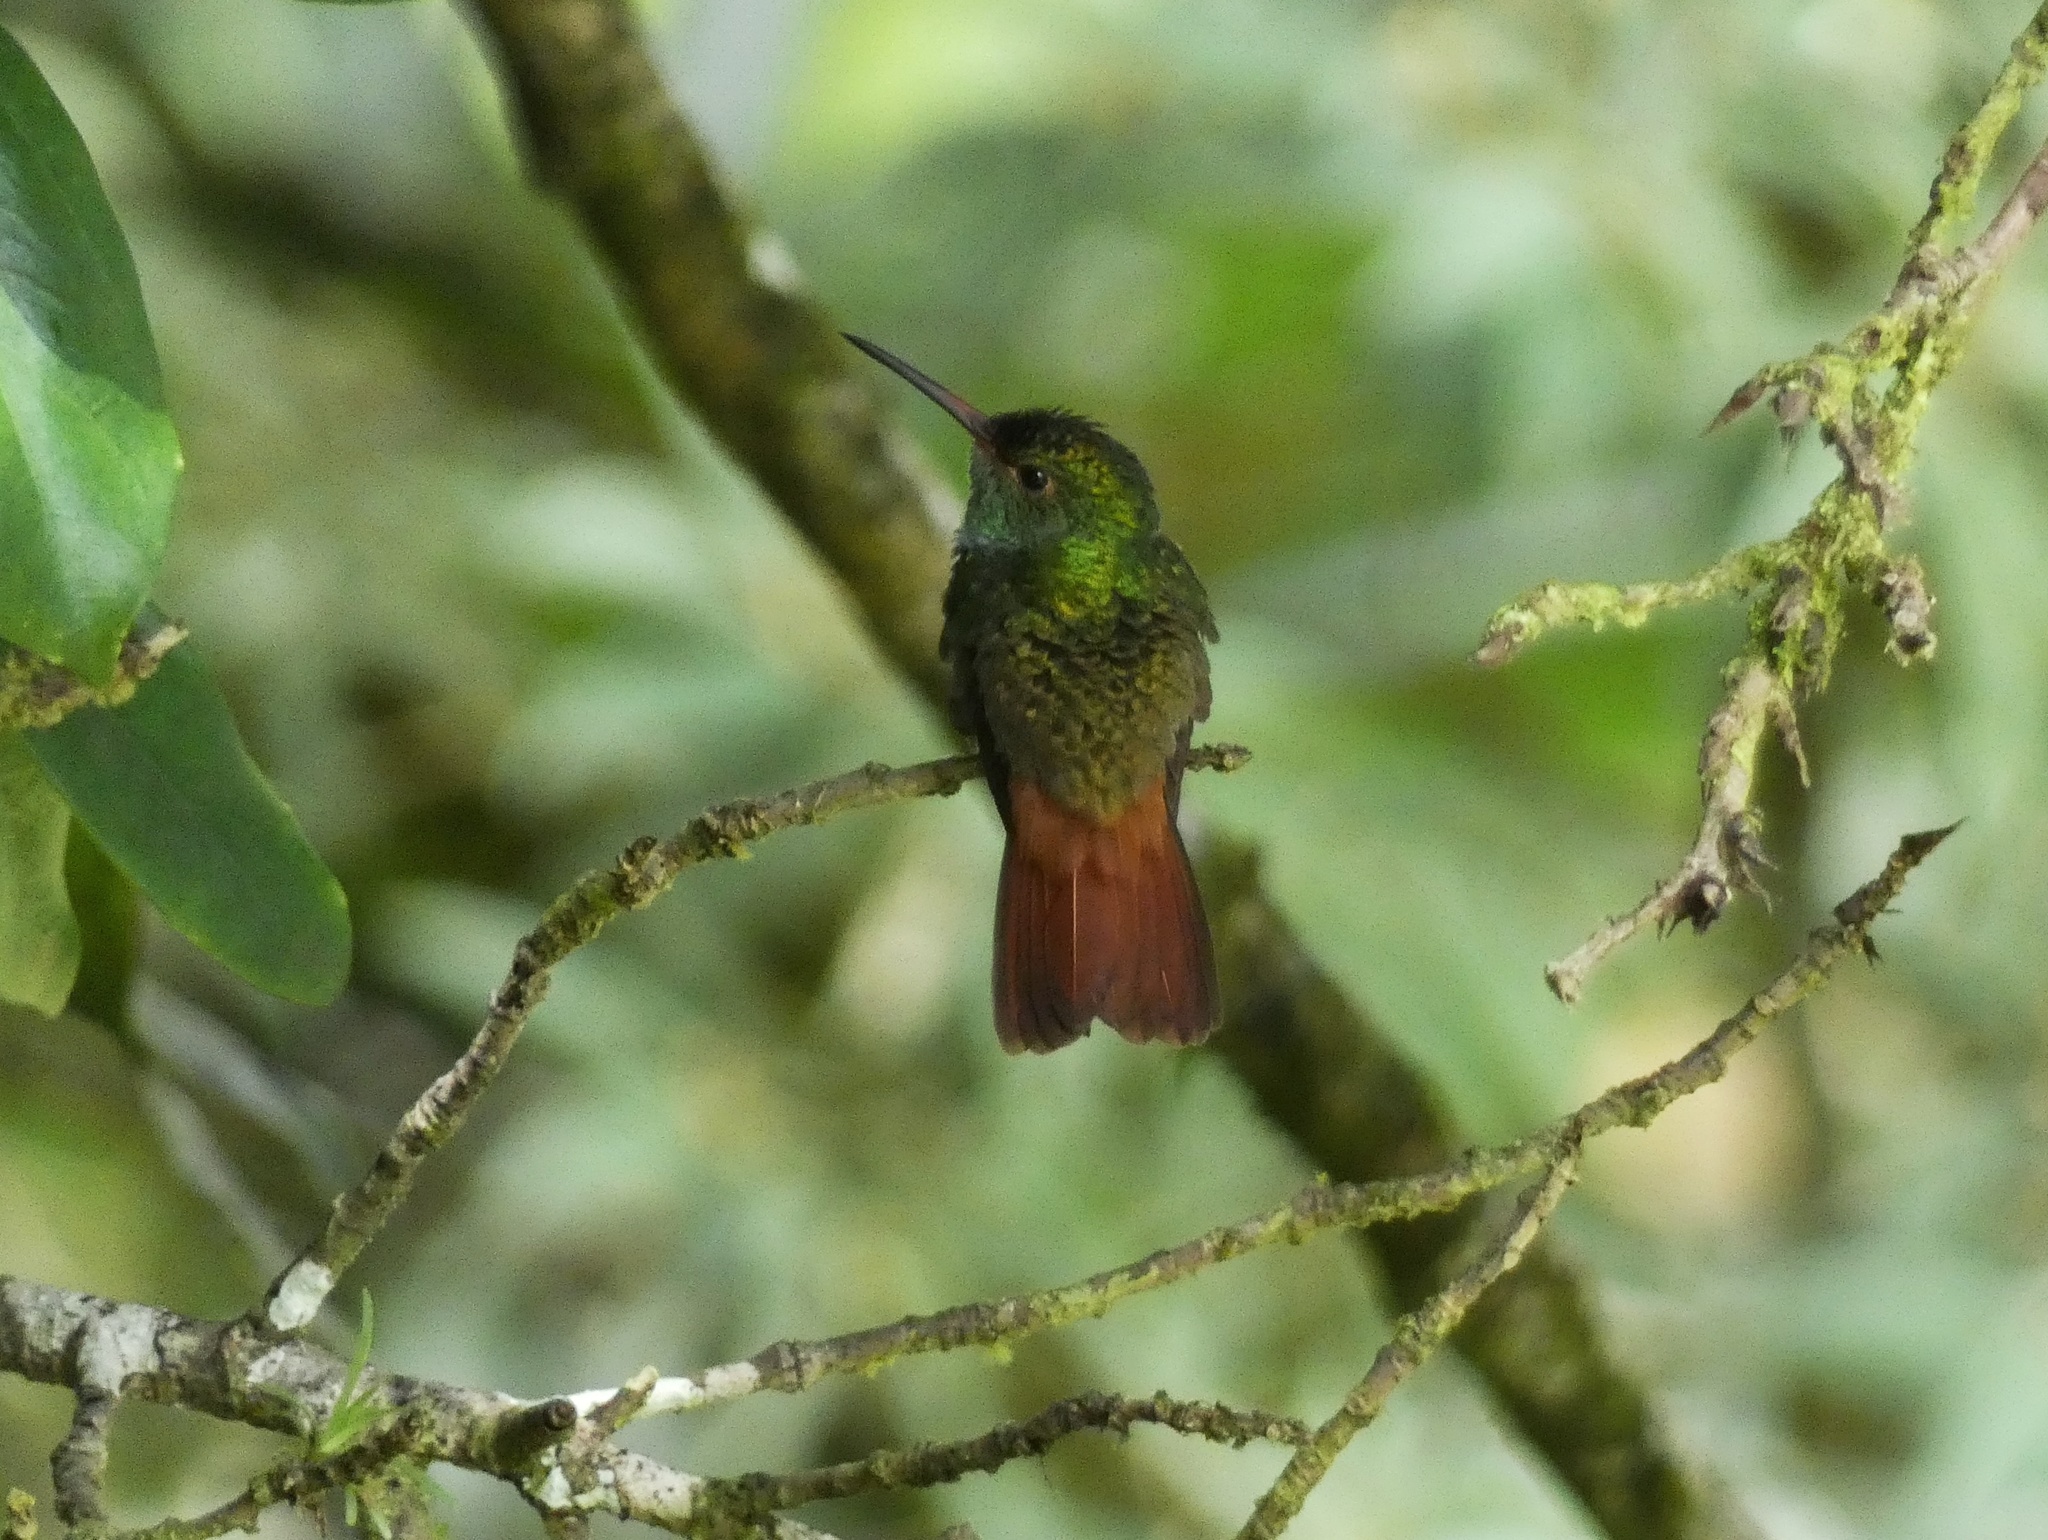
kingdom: Animalia
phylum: Chordata
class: Aves
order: Apodiformes
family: Trochilidae
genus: Amazilia
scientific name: Amazilia tzacatl
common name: Rufous-tailed hummingbird
